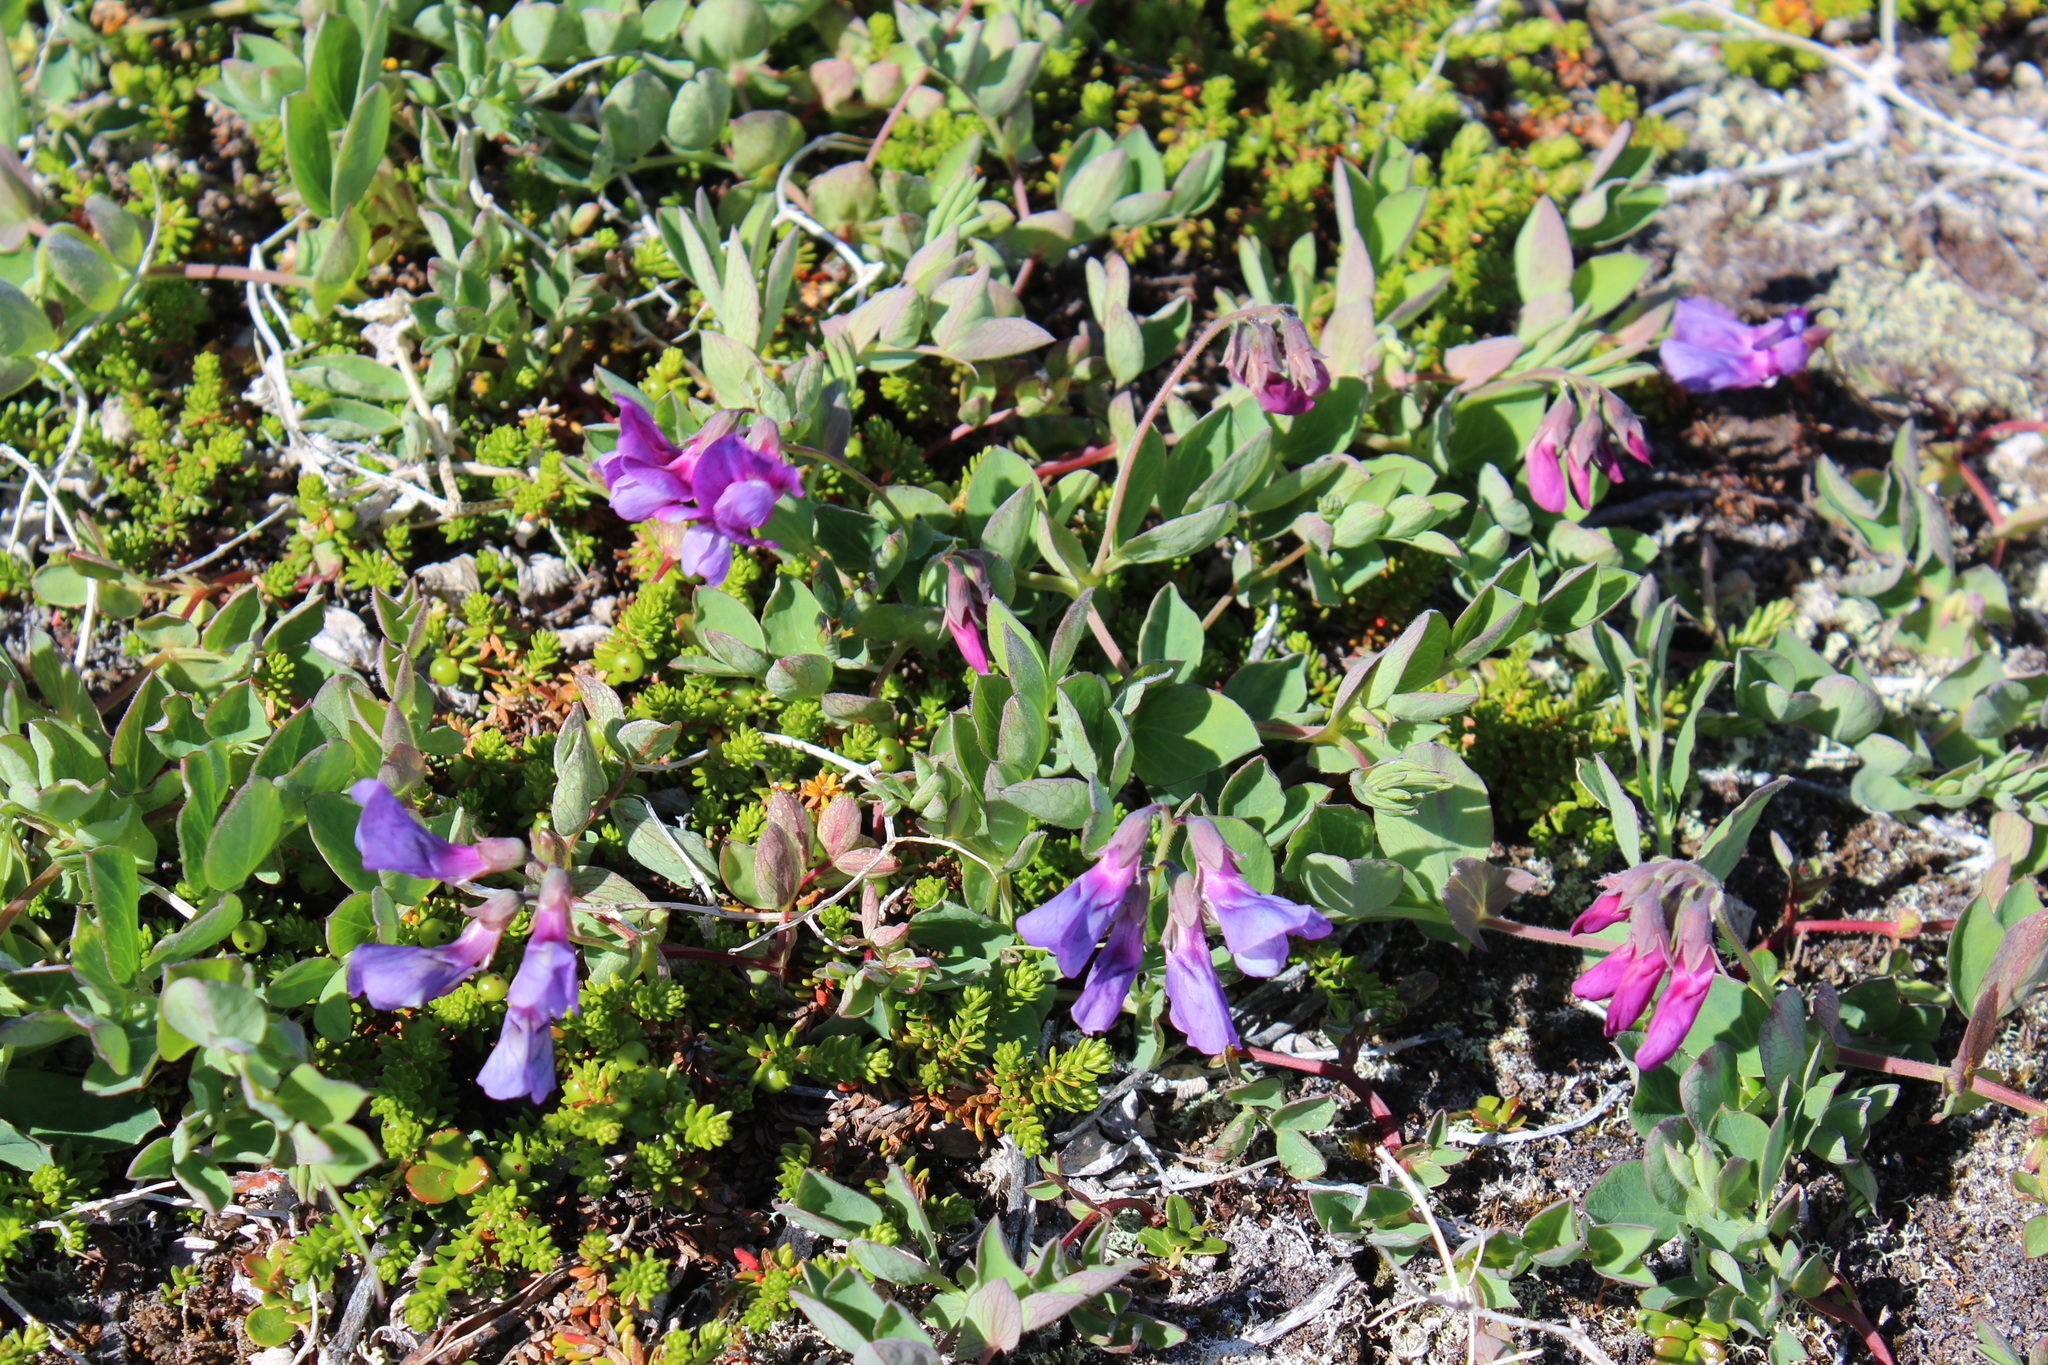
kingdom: Plantae
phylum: Tracheophyta
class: Magnoliopsida
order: Fabales
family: Fabaceae
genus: Lathyrus
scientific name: Lathyrus japonicus
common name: Sea pea
